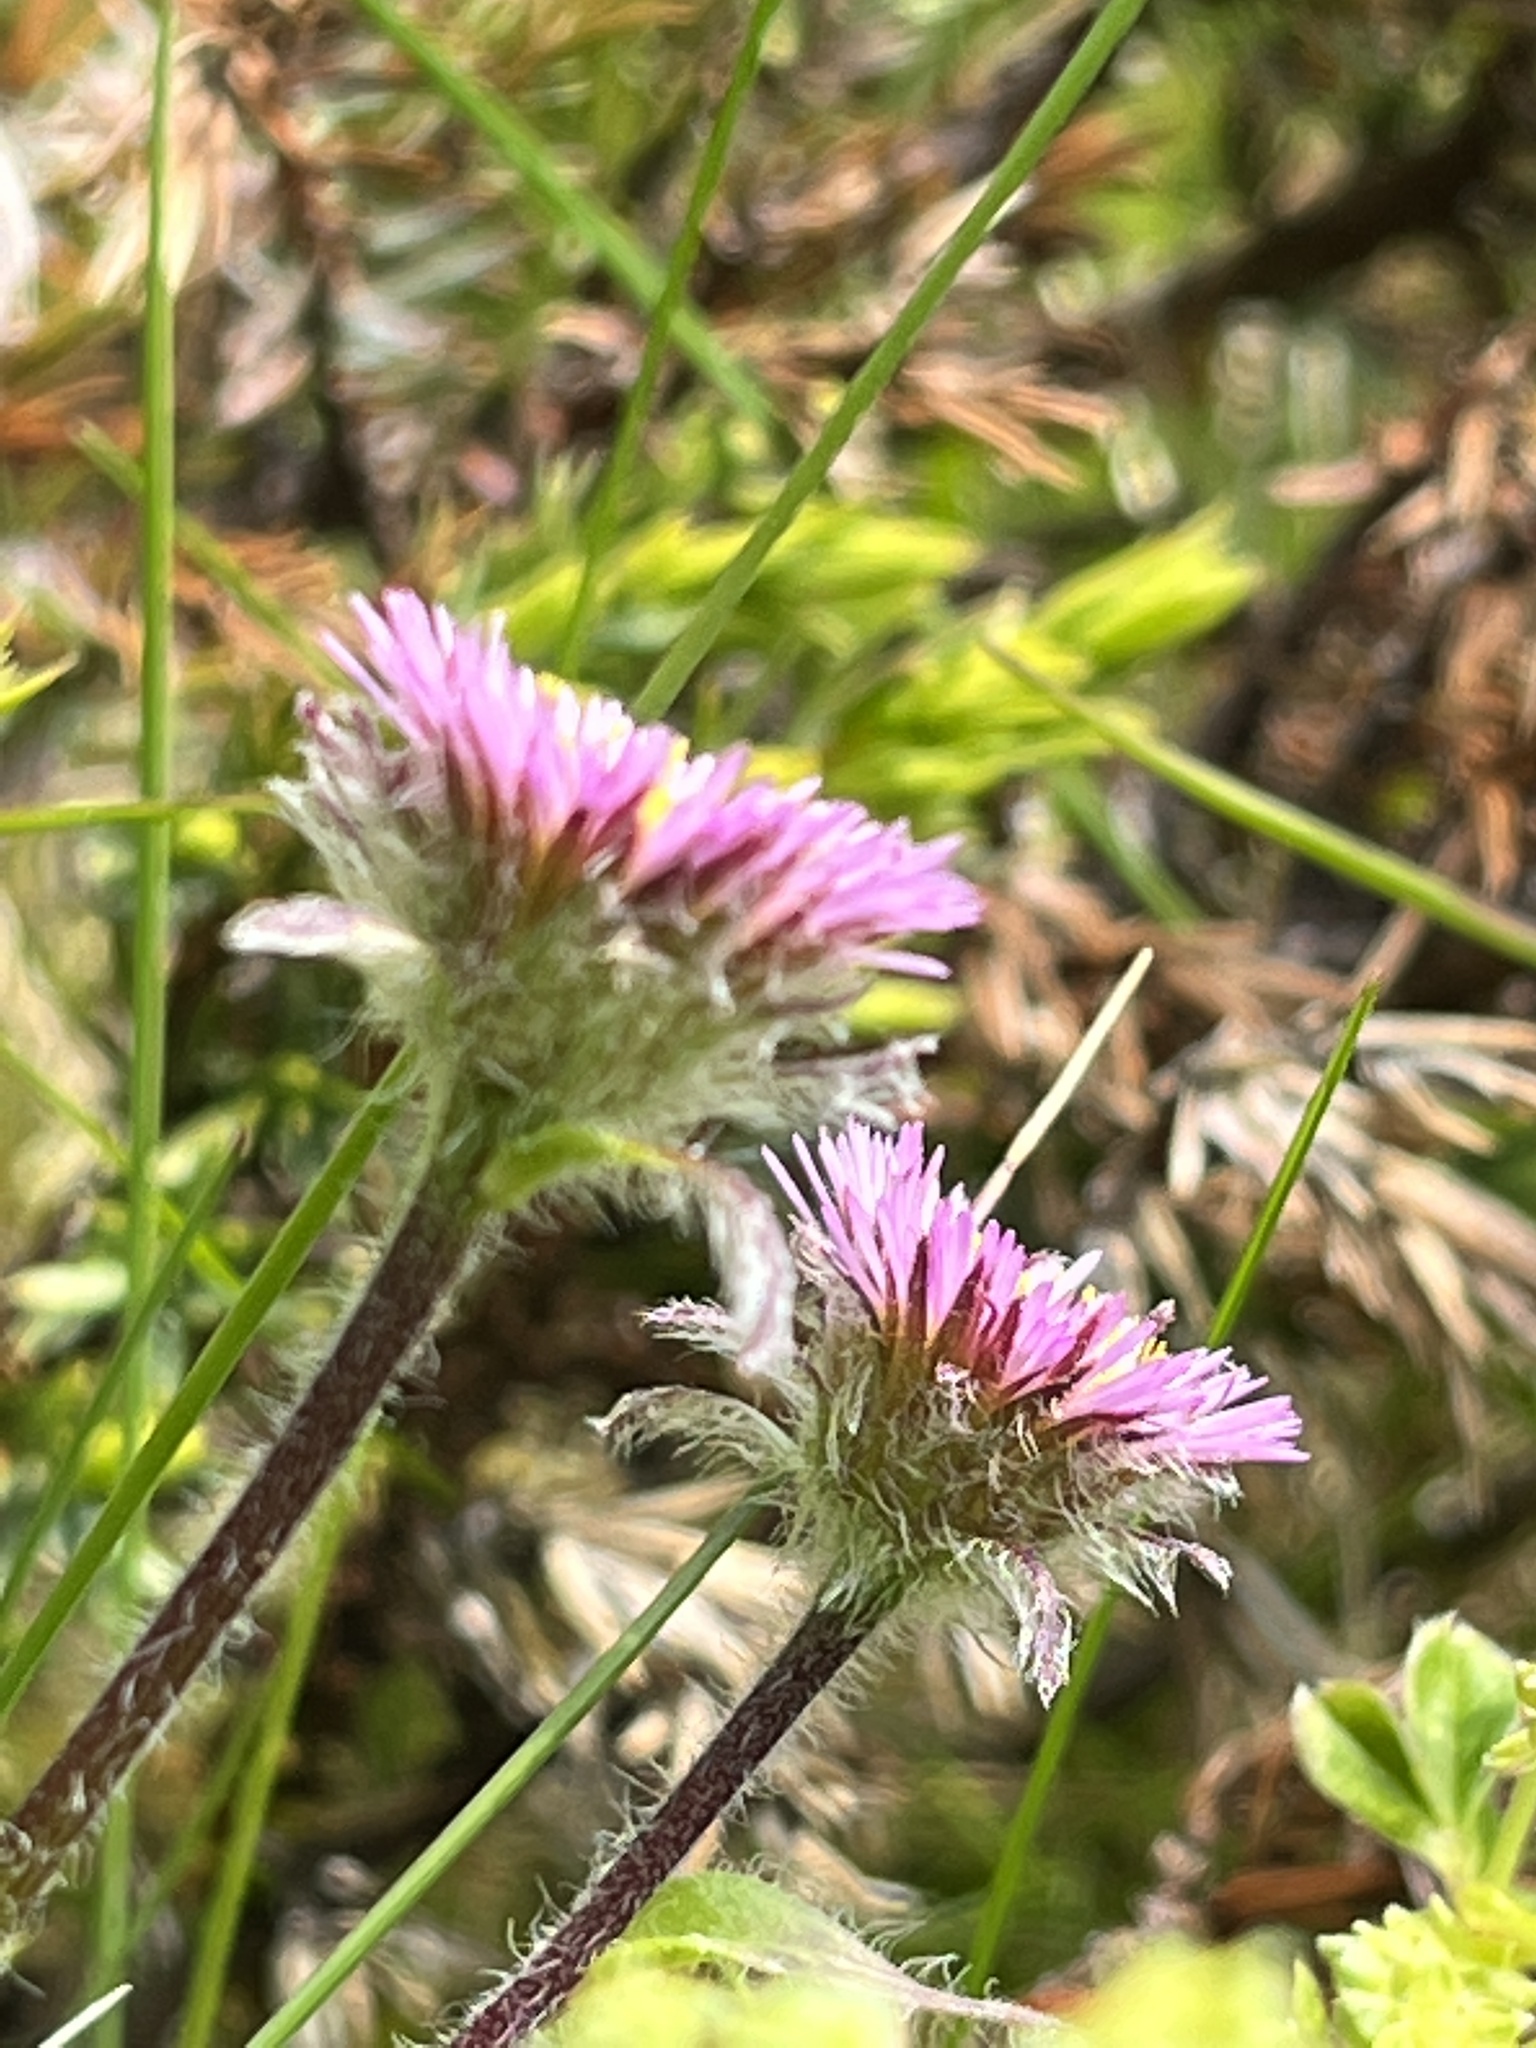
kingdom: Plantae
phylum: Tracheophyta
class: Magnoliopsida
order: Asterales
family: Asteraceae
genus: Erigeron
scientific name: Erigeron uniflorus
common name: Northern daisy
